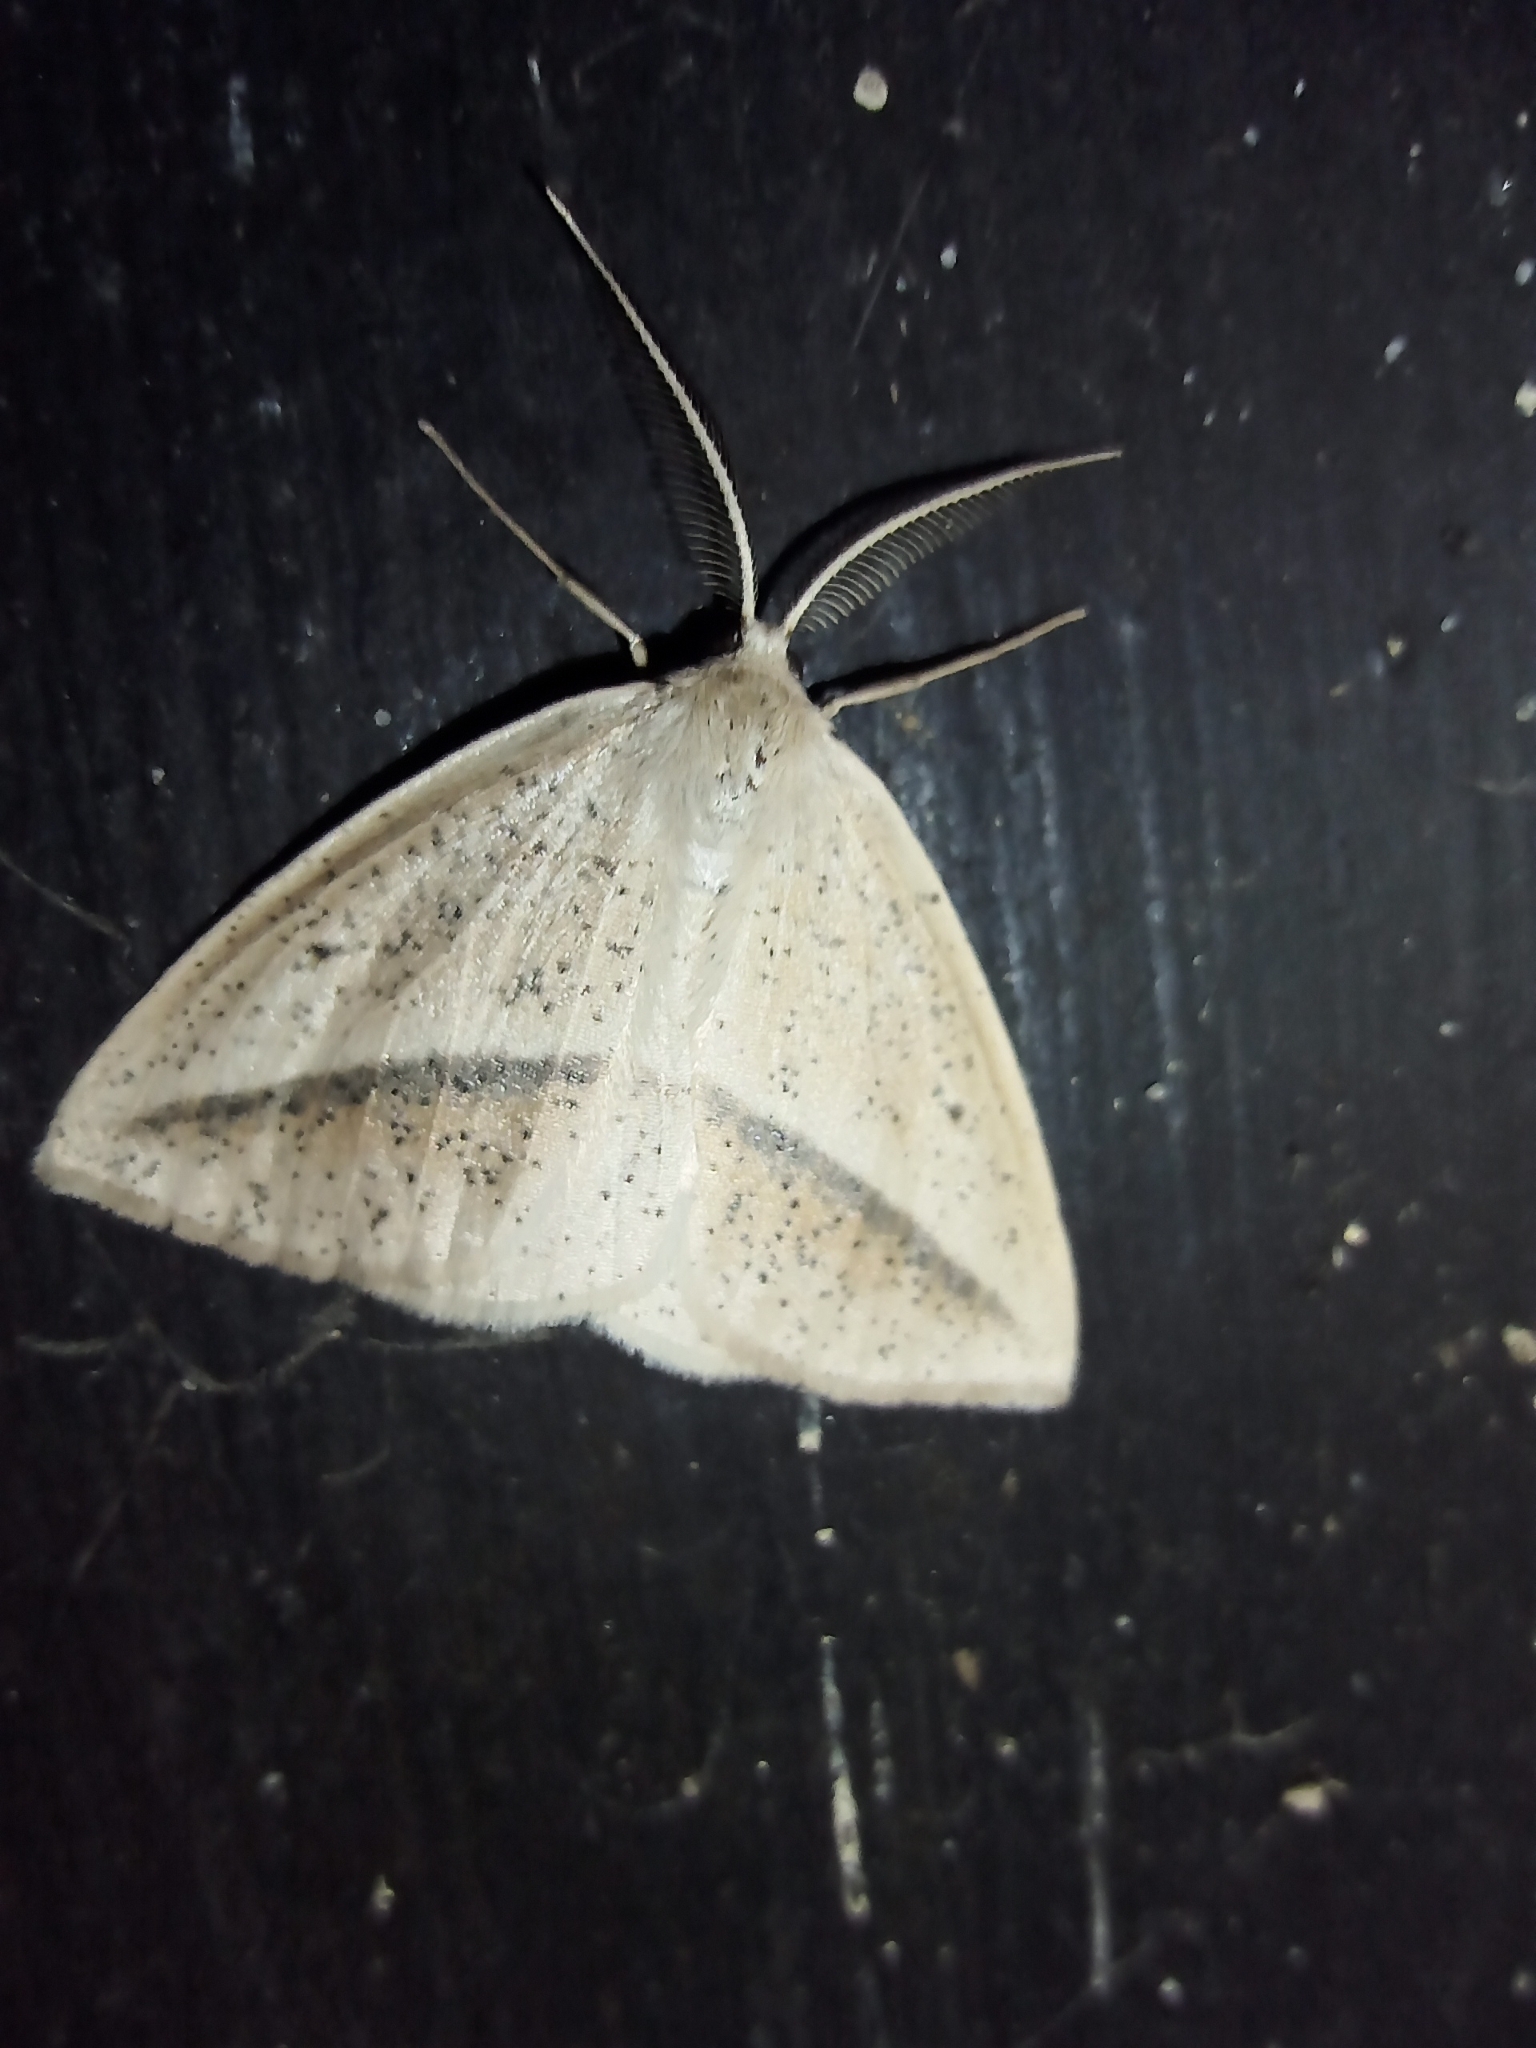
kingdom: Animalia
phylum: Arthropoda
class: Insecta
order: Lepidoptera
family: Geometridae
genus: Lychnosea
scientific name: Lychnosea intermicata
